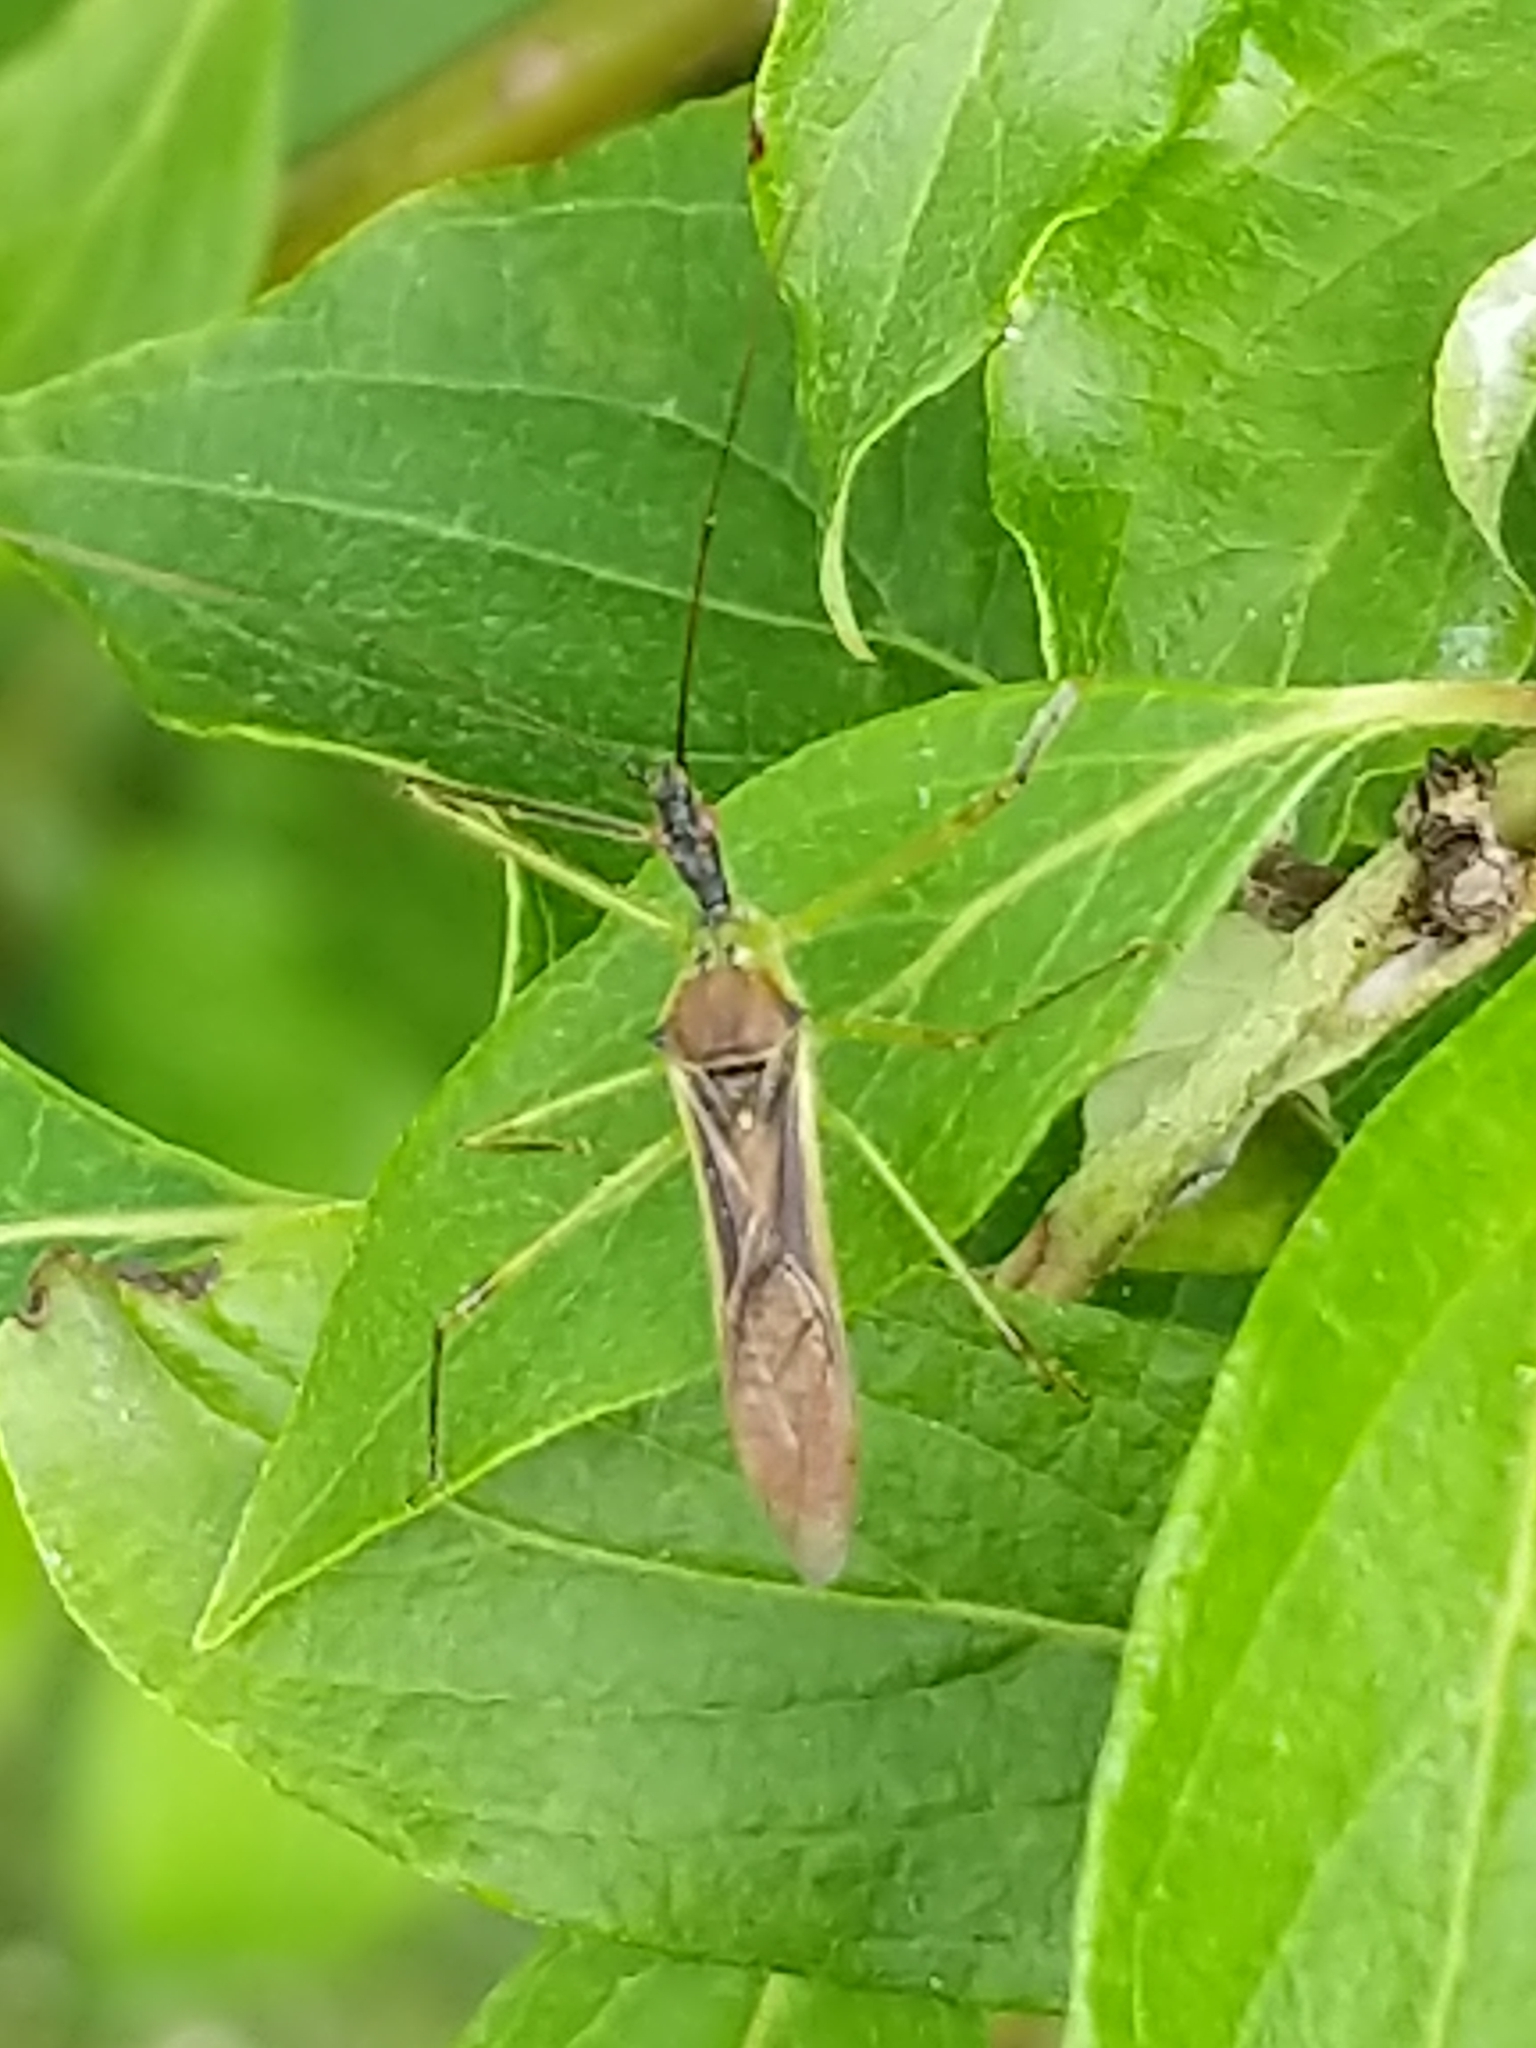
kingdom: Animalia
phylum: Arthropoda
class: Insecta
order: Hemiptera
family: Reduviidae
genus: Zelus
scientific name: Zelus luridus
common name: Pale green assassin bug
